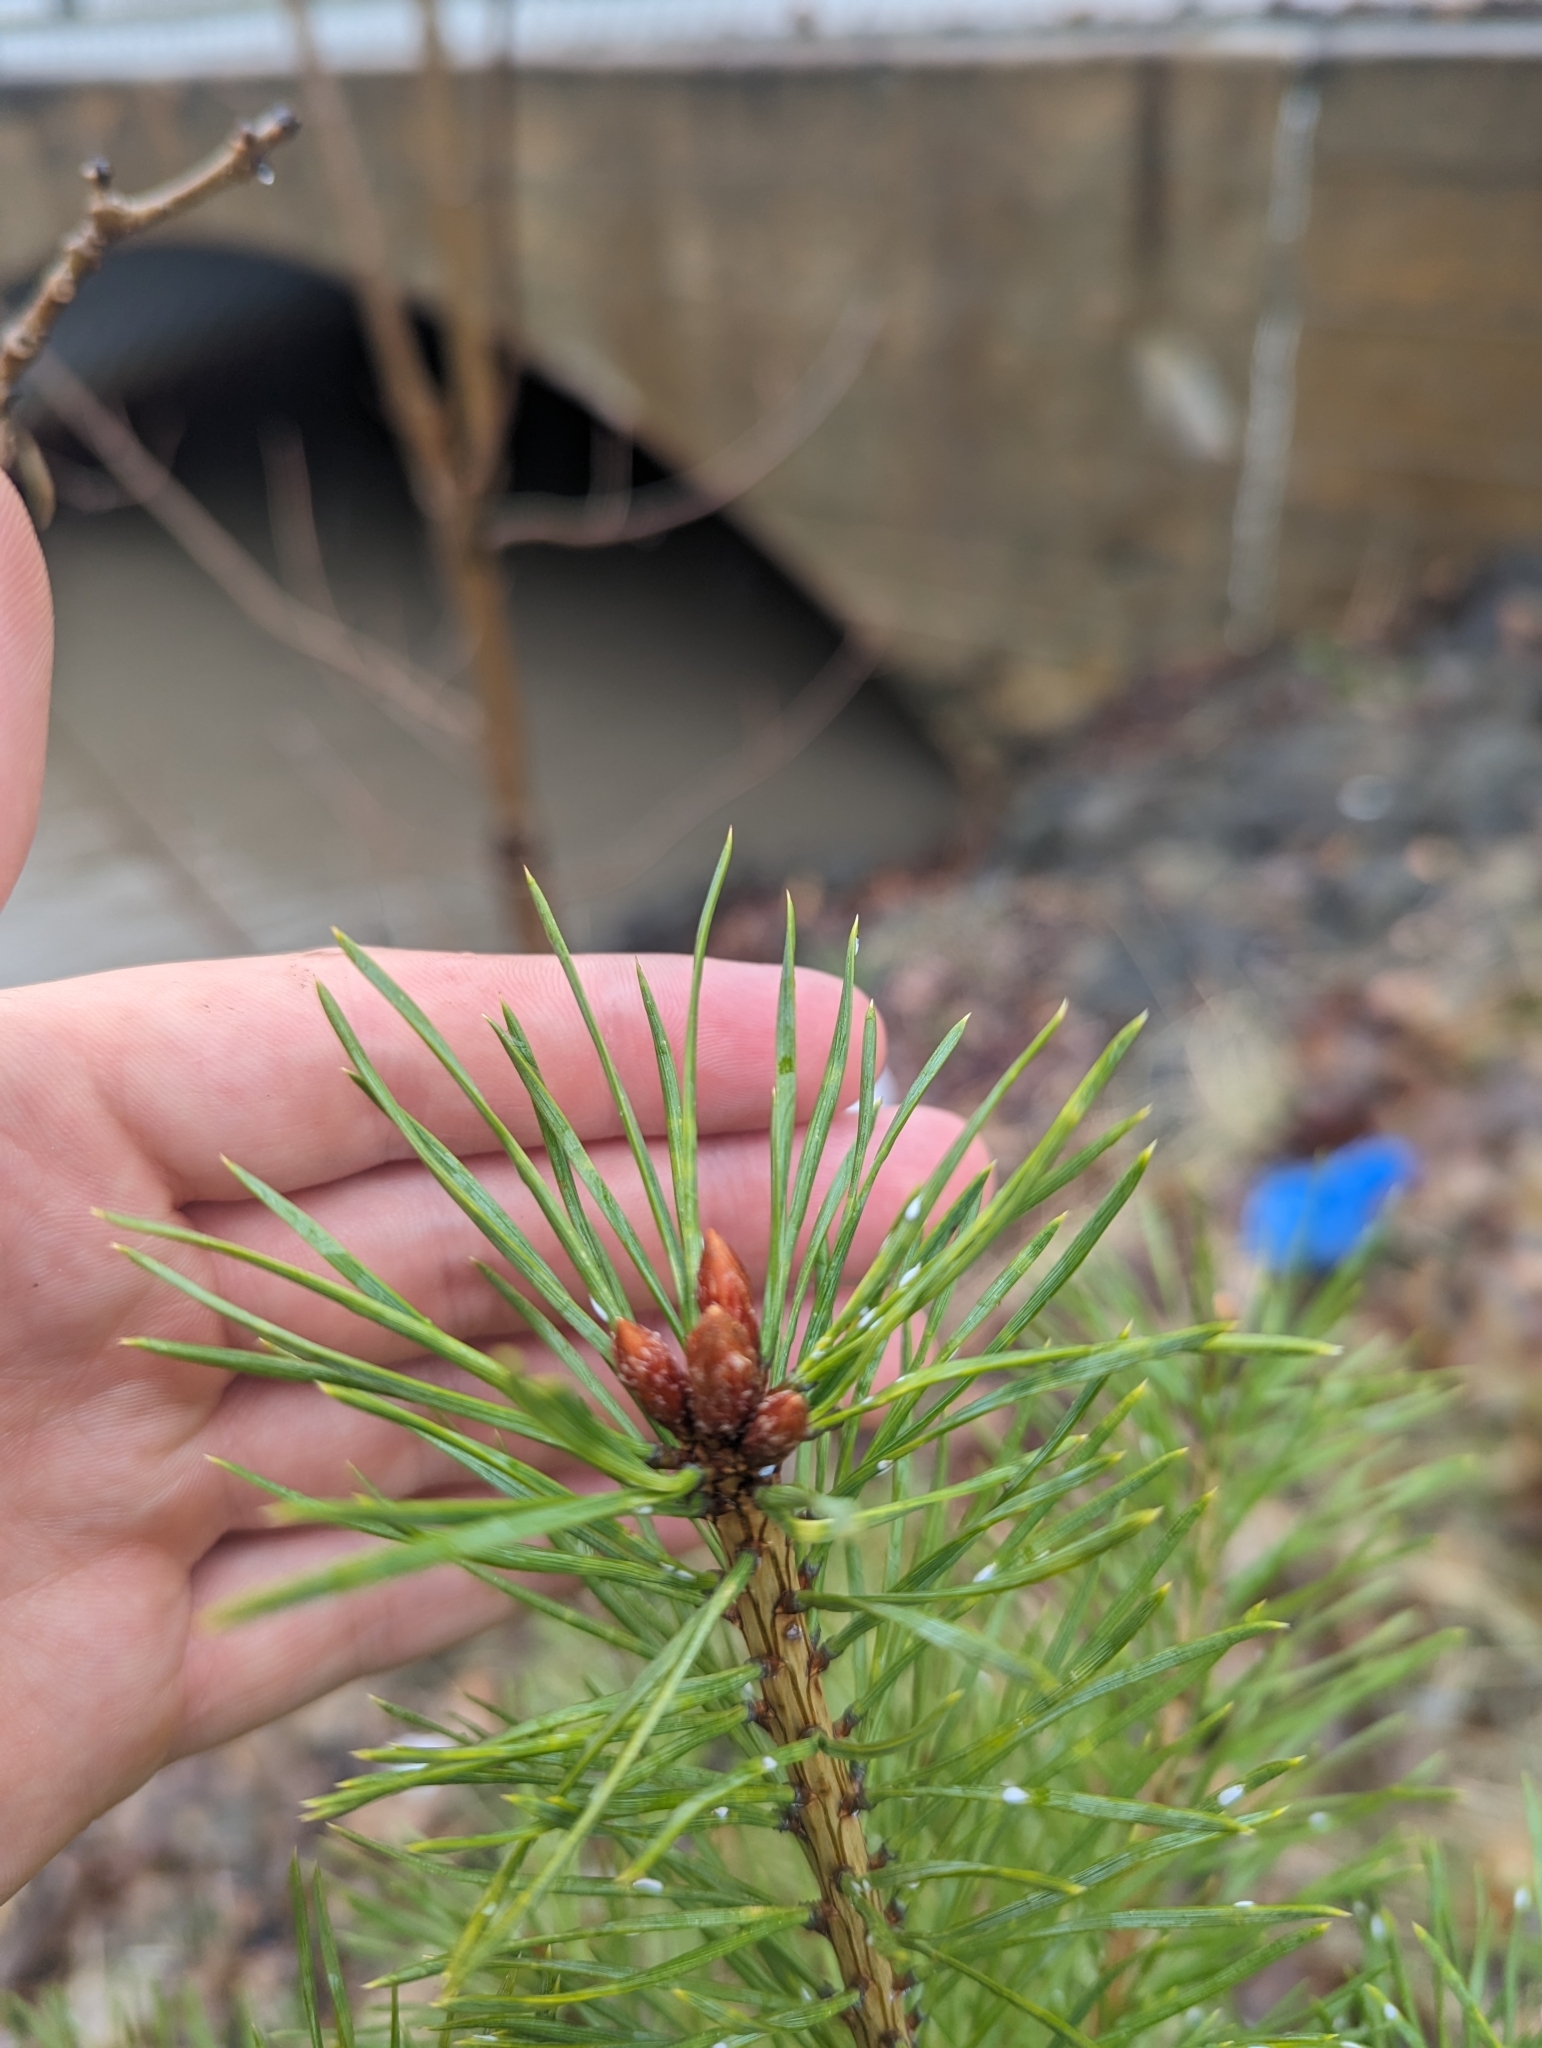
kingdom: Plantae
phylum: Tracheophyta
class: Pinopsida
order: Pinales
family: Pinaceae
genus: Pinus
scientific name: Pinus sylvestris
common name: Scots pine
